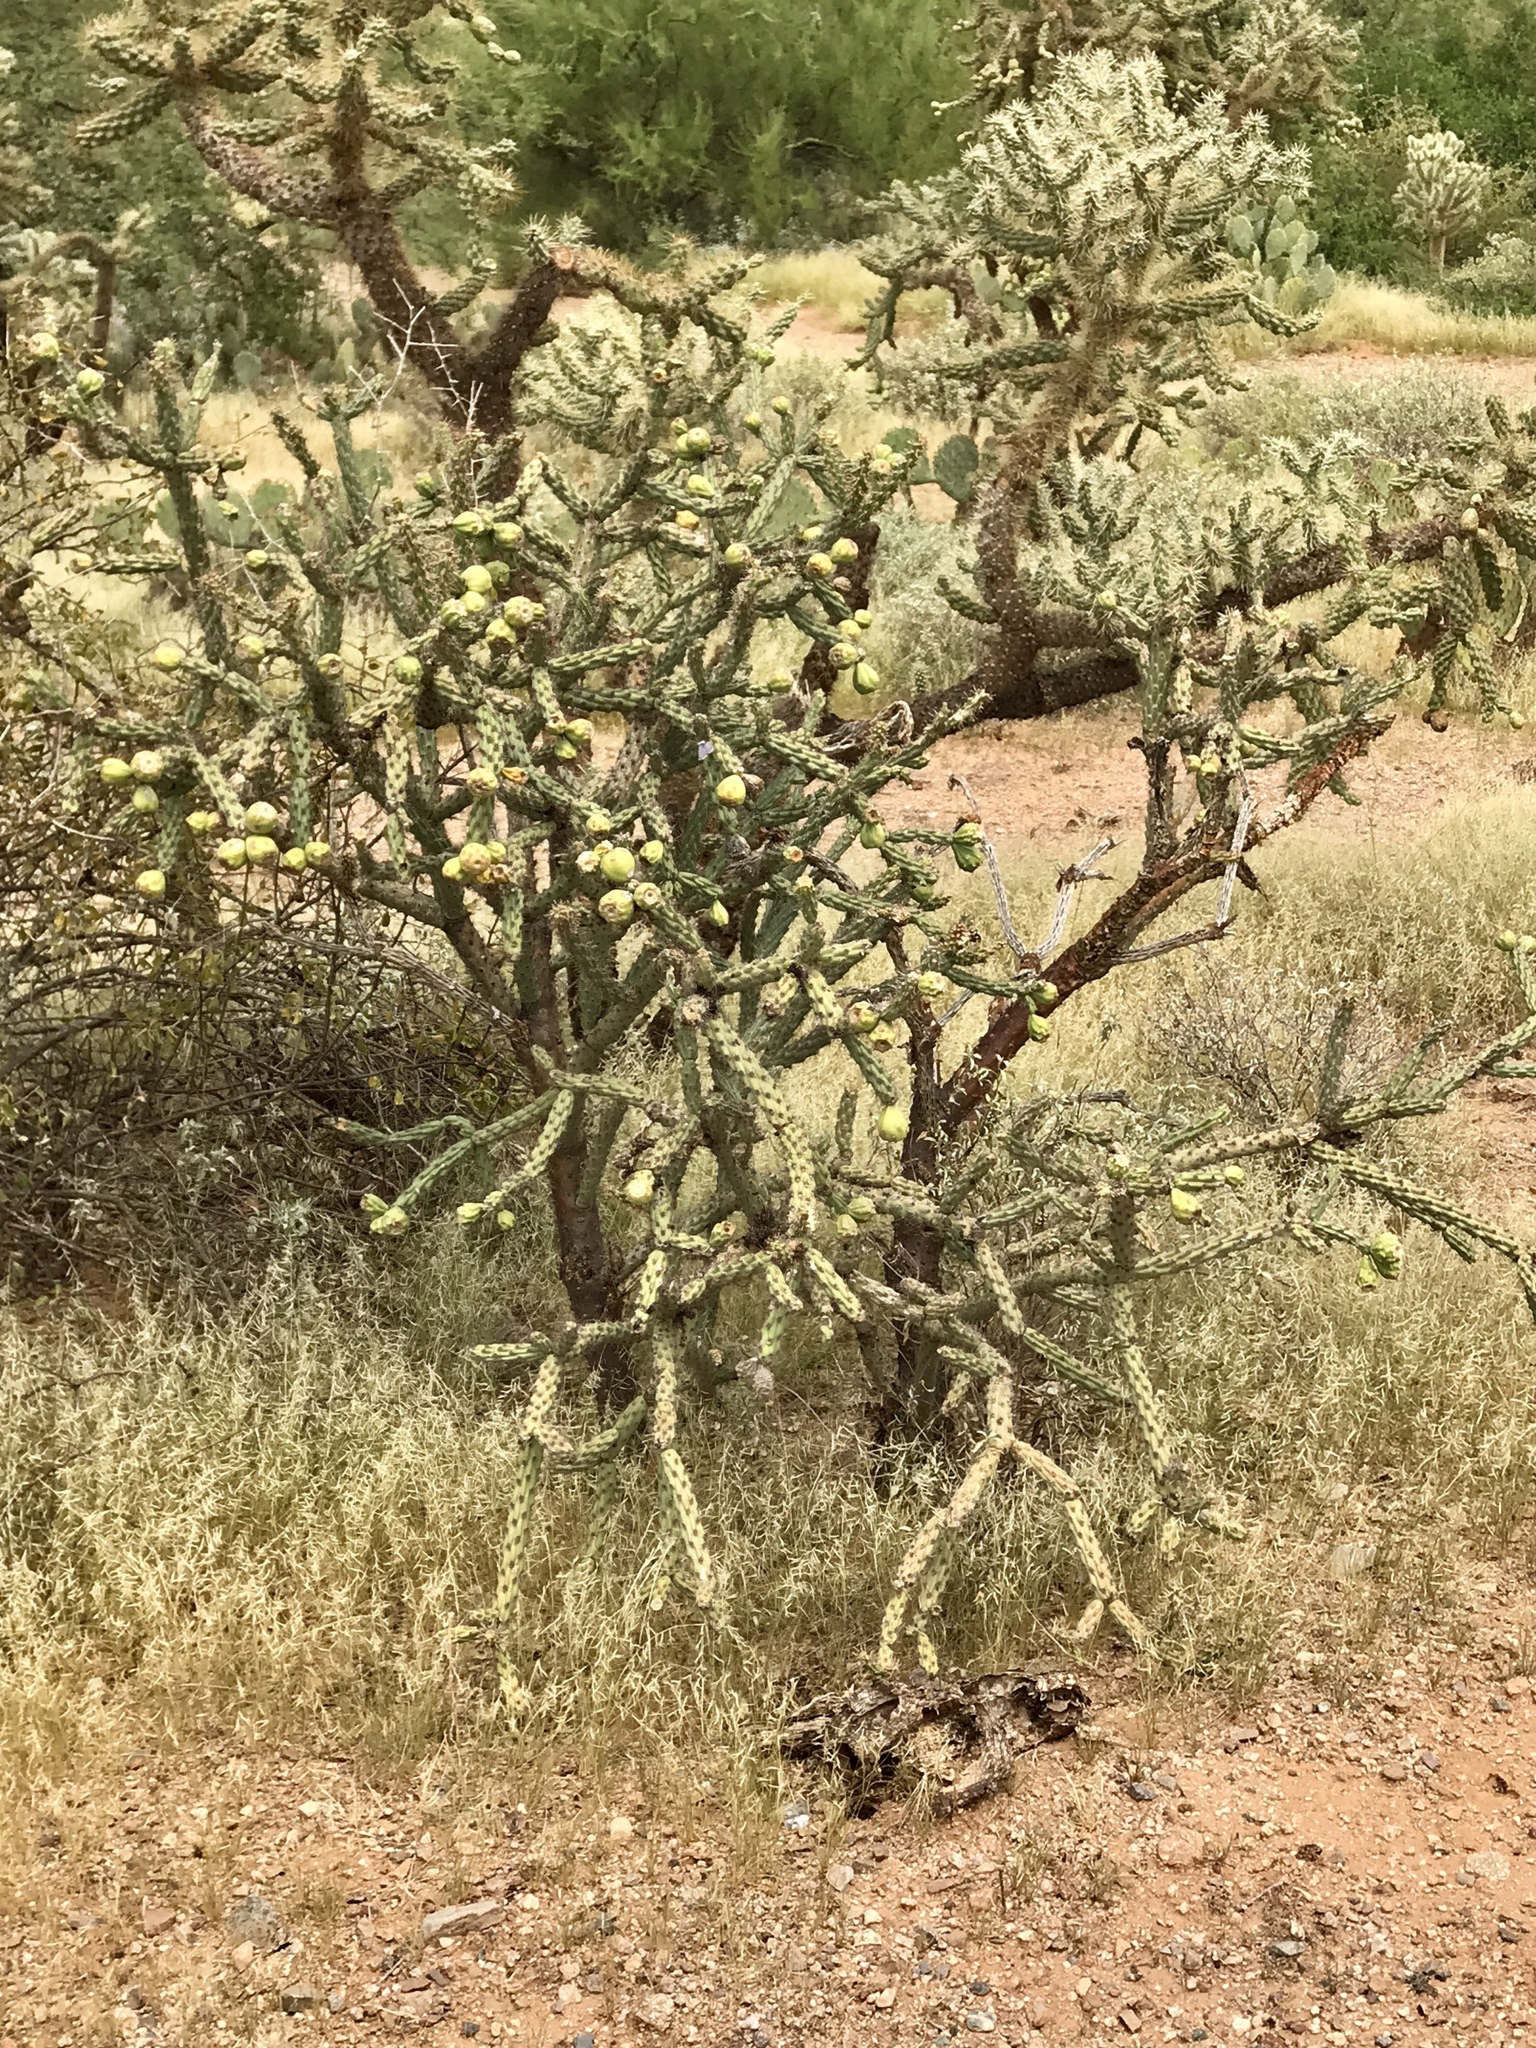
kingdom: Plantae
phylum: Tracheophyta
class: Magnoliopsida
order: Caryophyllales
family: Cactaceae
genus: Cylindropuntia
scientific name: Cylindropuntia thurberi
